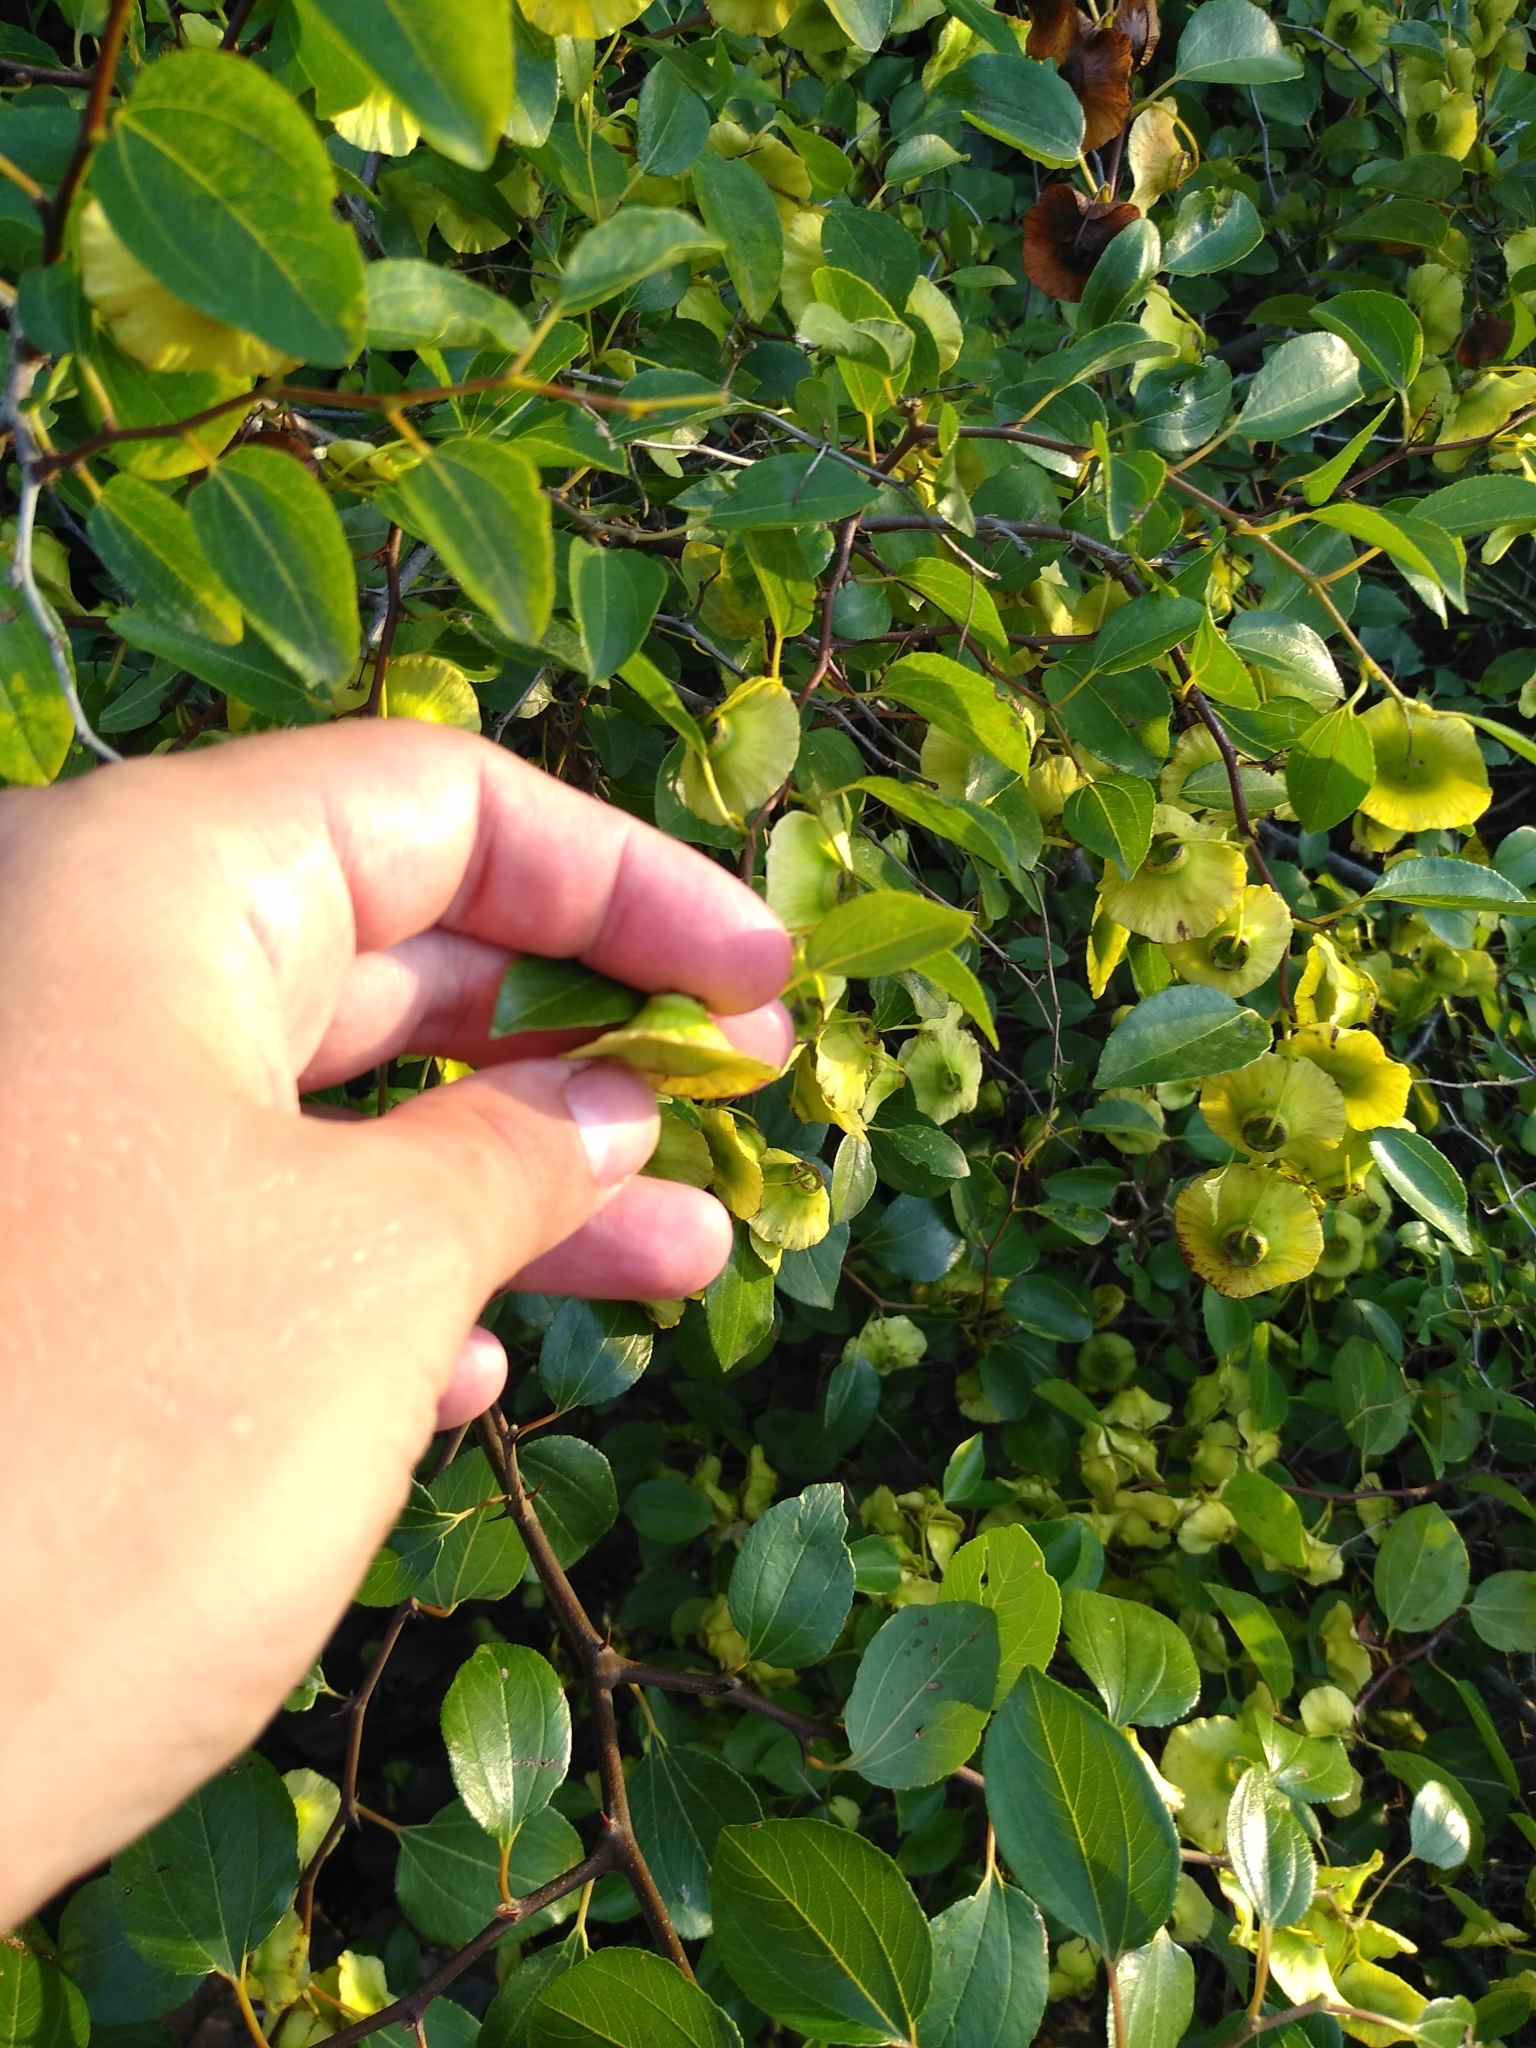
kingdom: Plantae
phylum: Tracheophyta
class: Magnoliopsida
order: Rosales
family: Rhamnaceae
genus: Paliurus
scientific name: Paliurus spina-christi
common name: Jeruselem thorn
